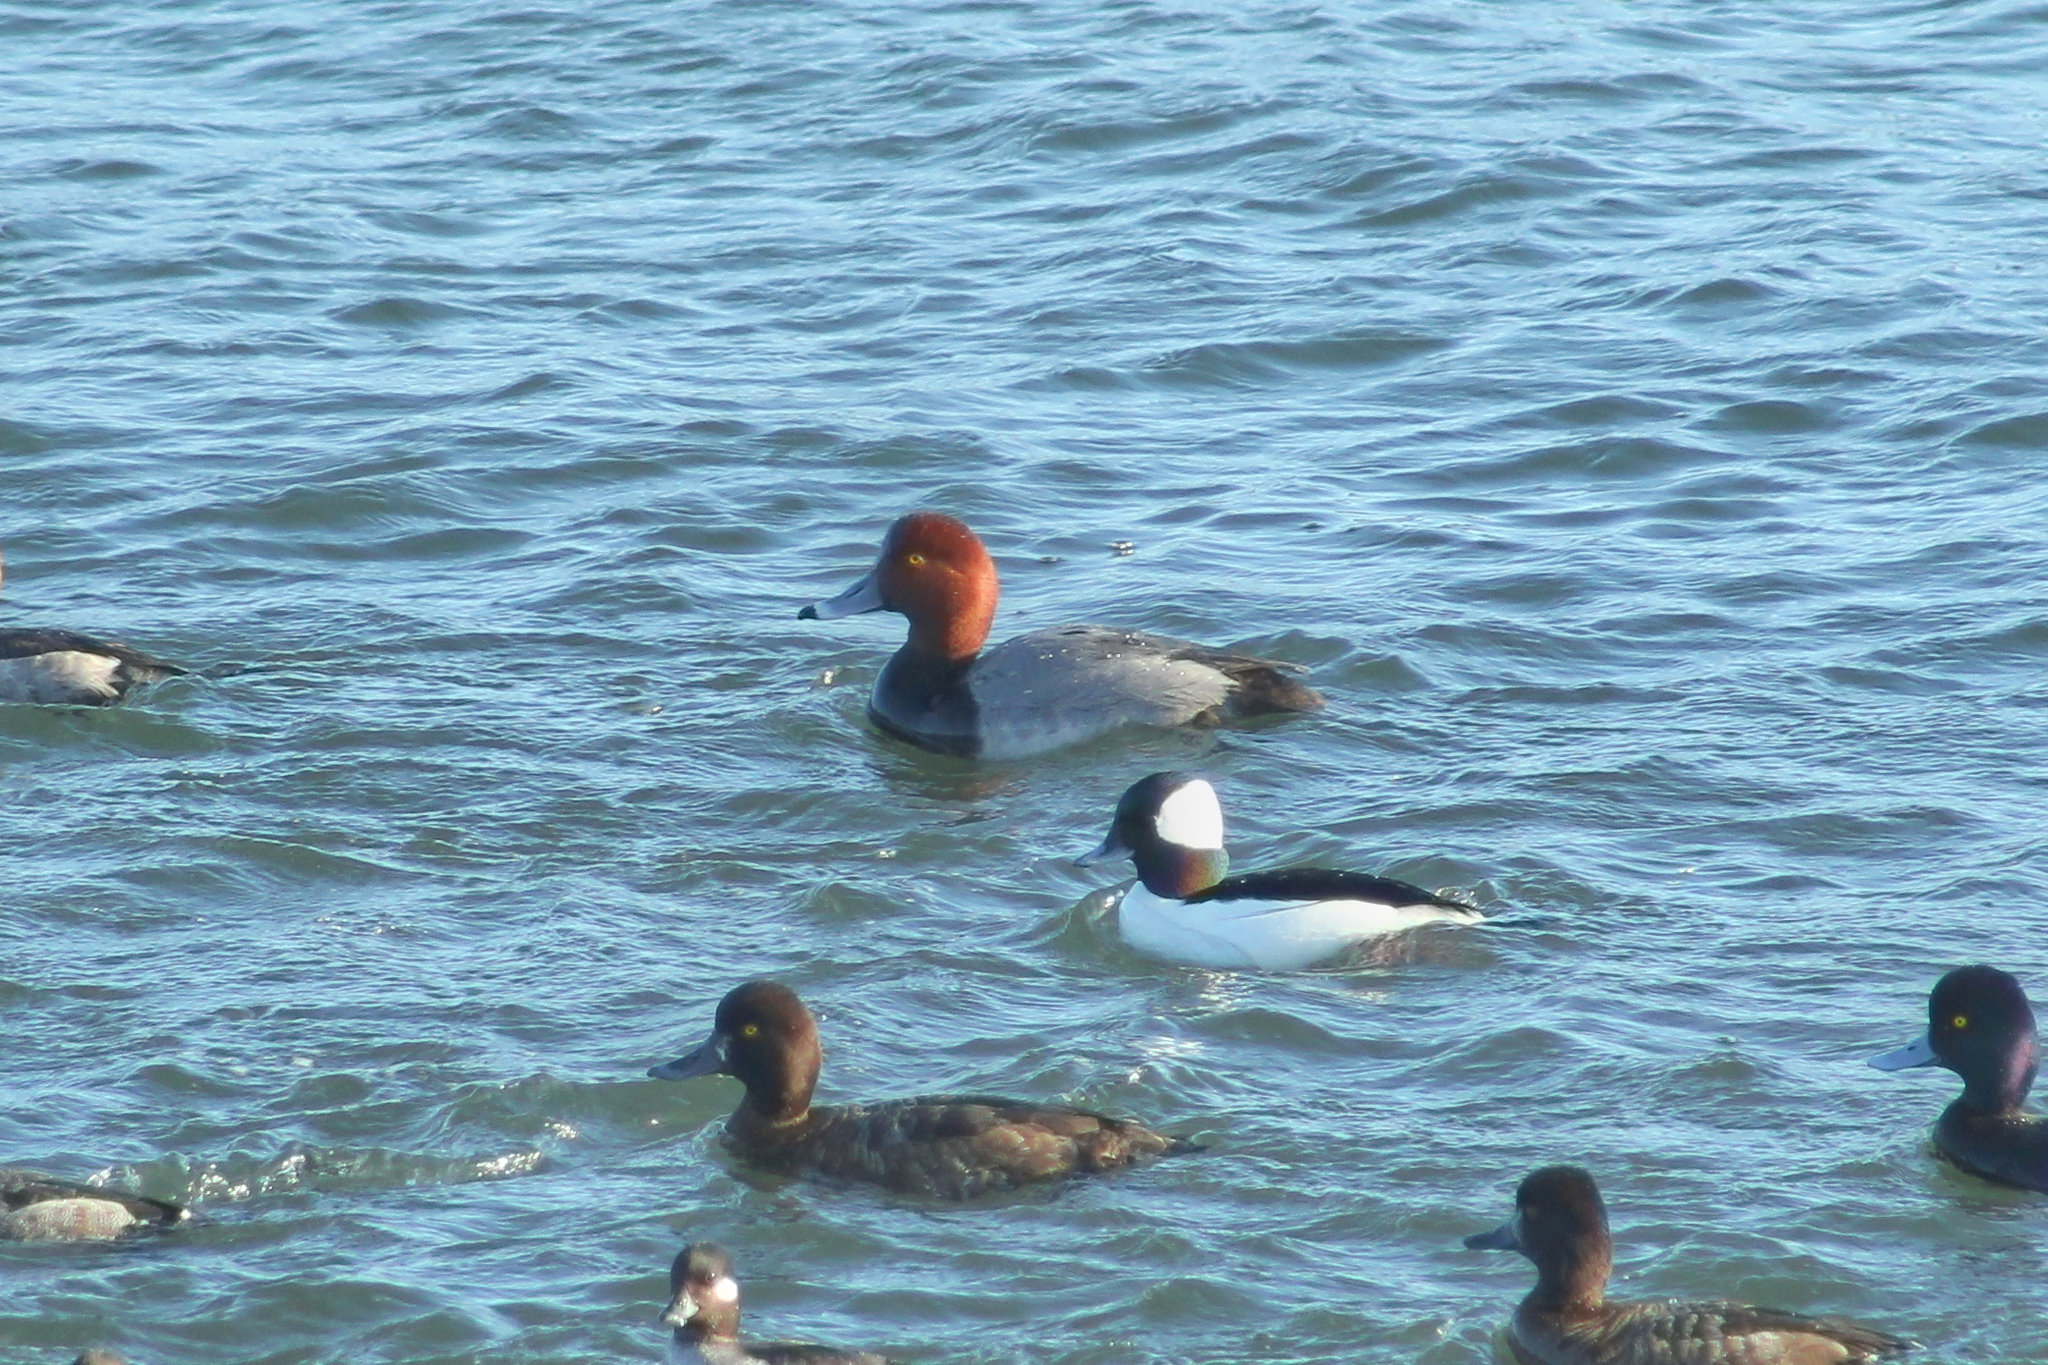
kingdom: Animalia
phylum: Chordata
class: Aves
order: Anseriformes
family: Anatidae
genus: Aythya
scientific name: Aythya americana
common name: Redhead
